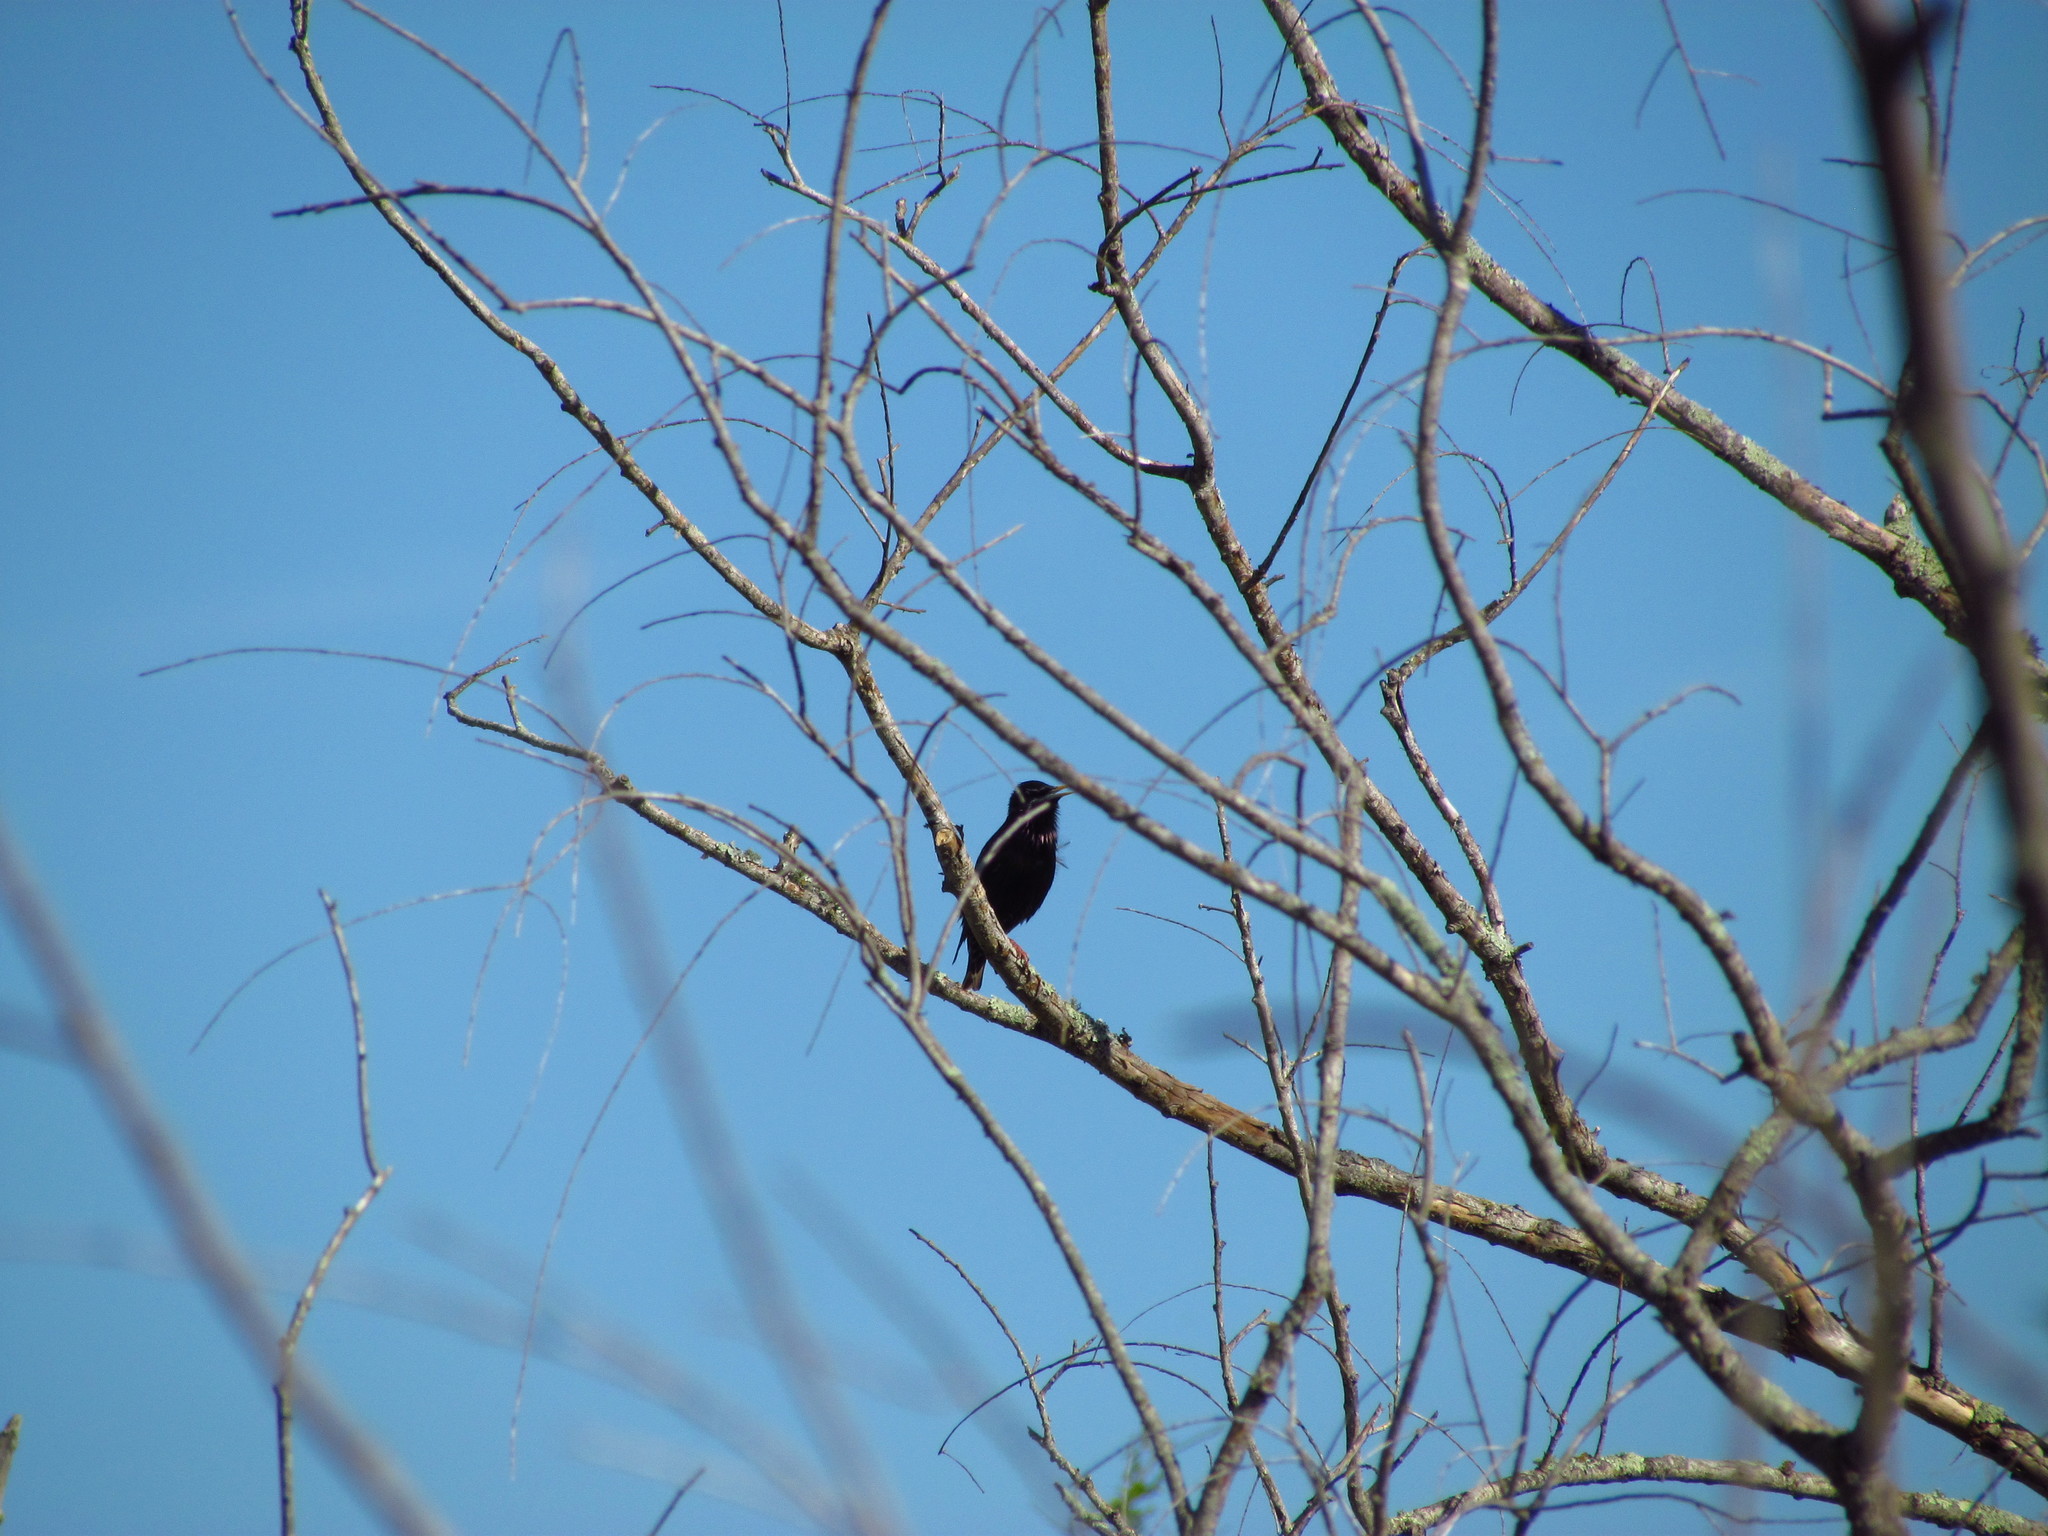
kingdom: Animalia
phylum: Chordata
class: Aves
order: Passeriformes
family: Sturnidae
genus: Sturnus
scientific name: Sturnus vulgaris
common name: Common starling
